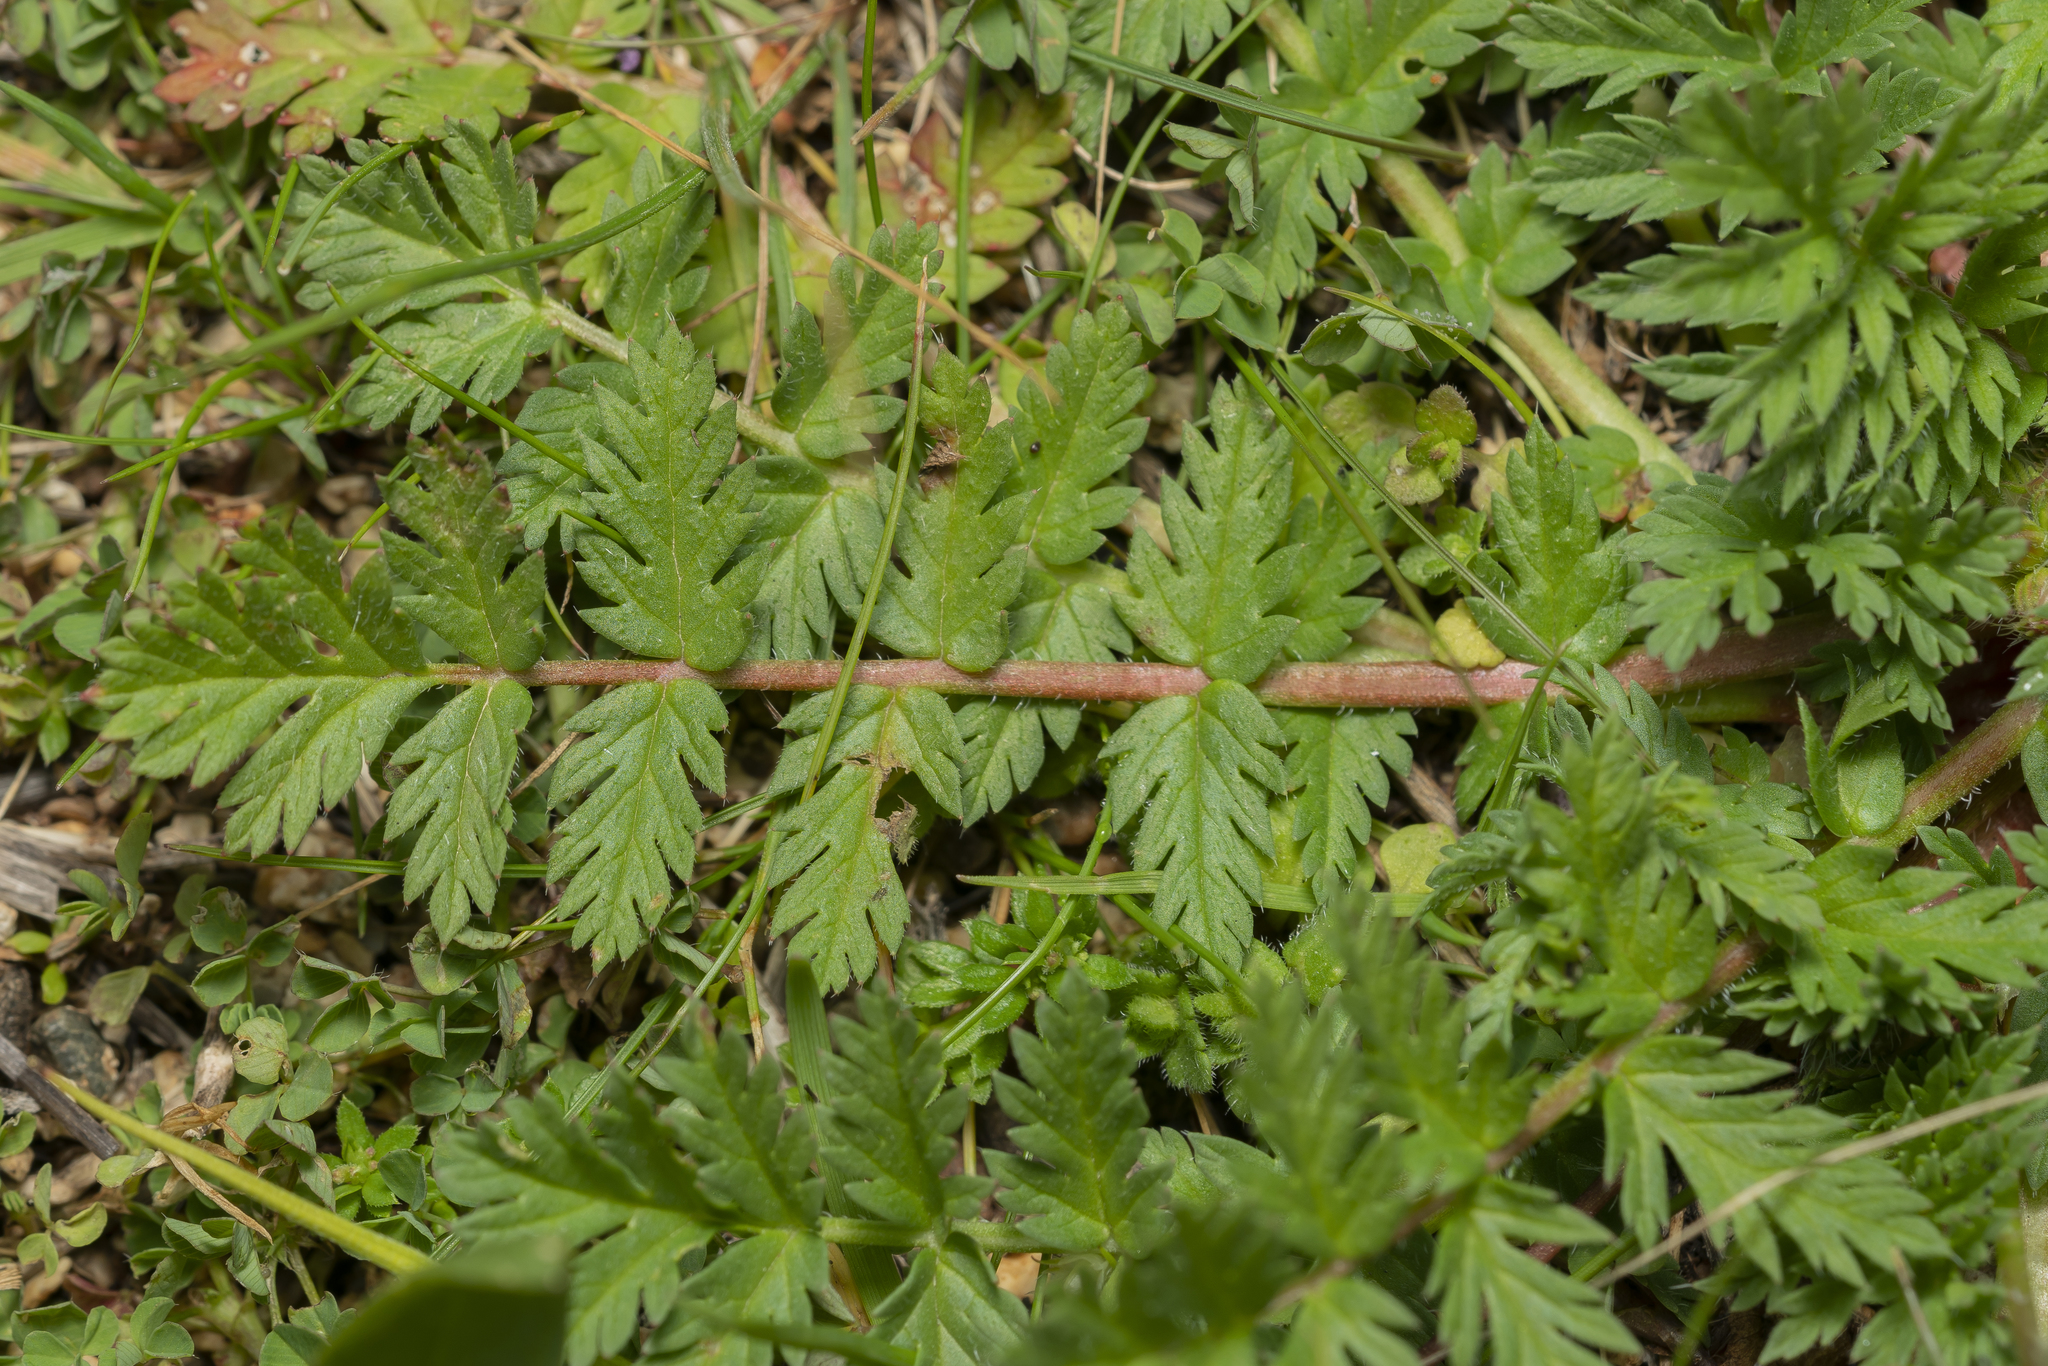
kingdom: Plantae
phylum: Tracheophyta
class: Magnoliopsida
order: Geraniales
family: Geraniaceae
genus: Erodium
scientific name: Erodium cicutarium
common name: Common stork's-bill
